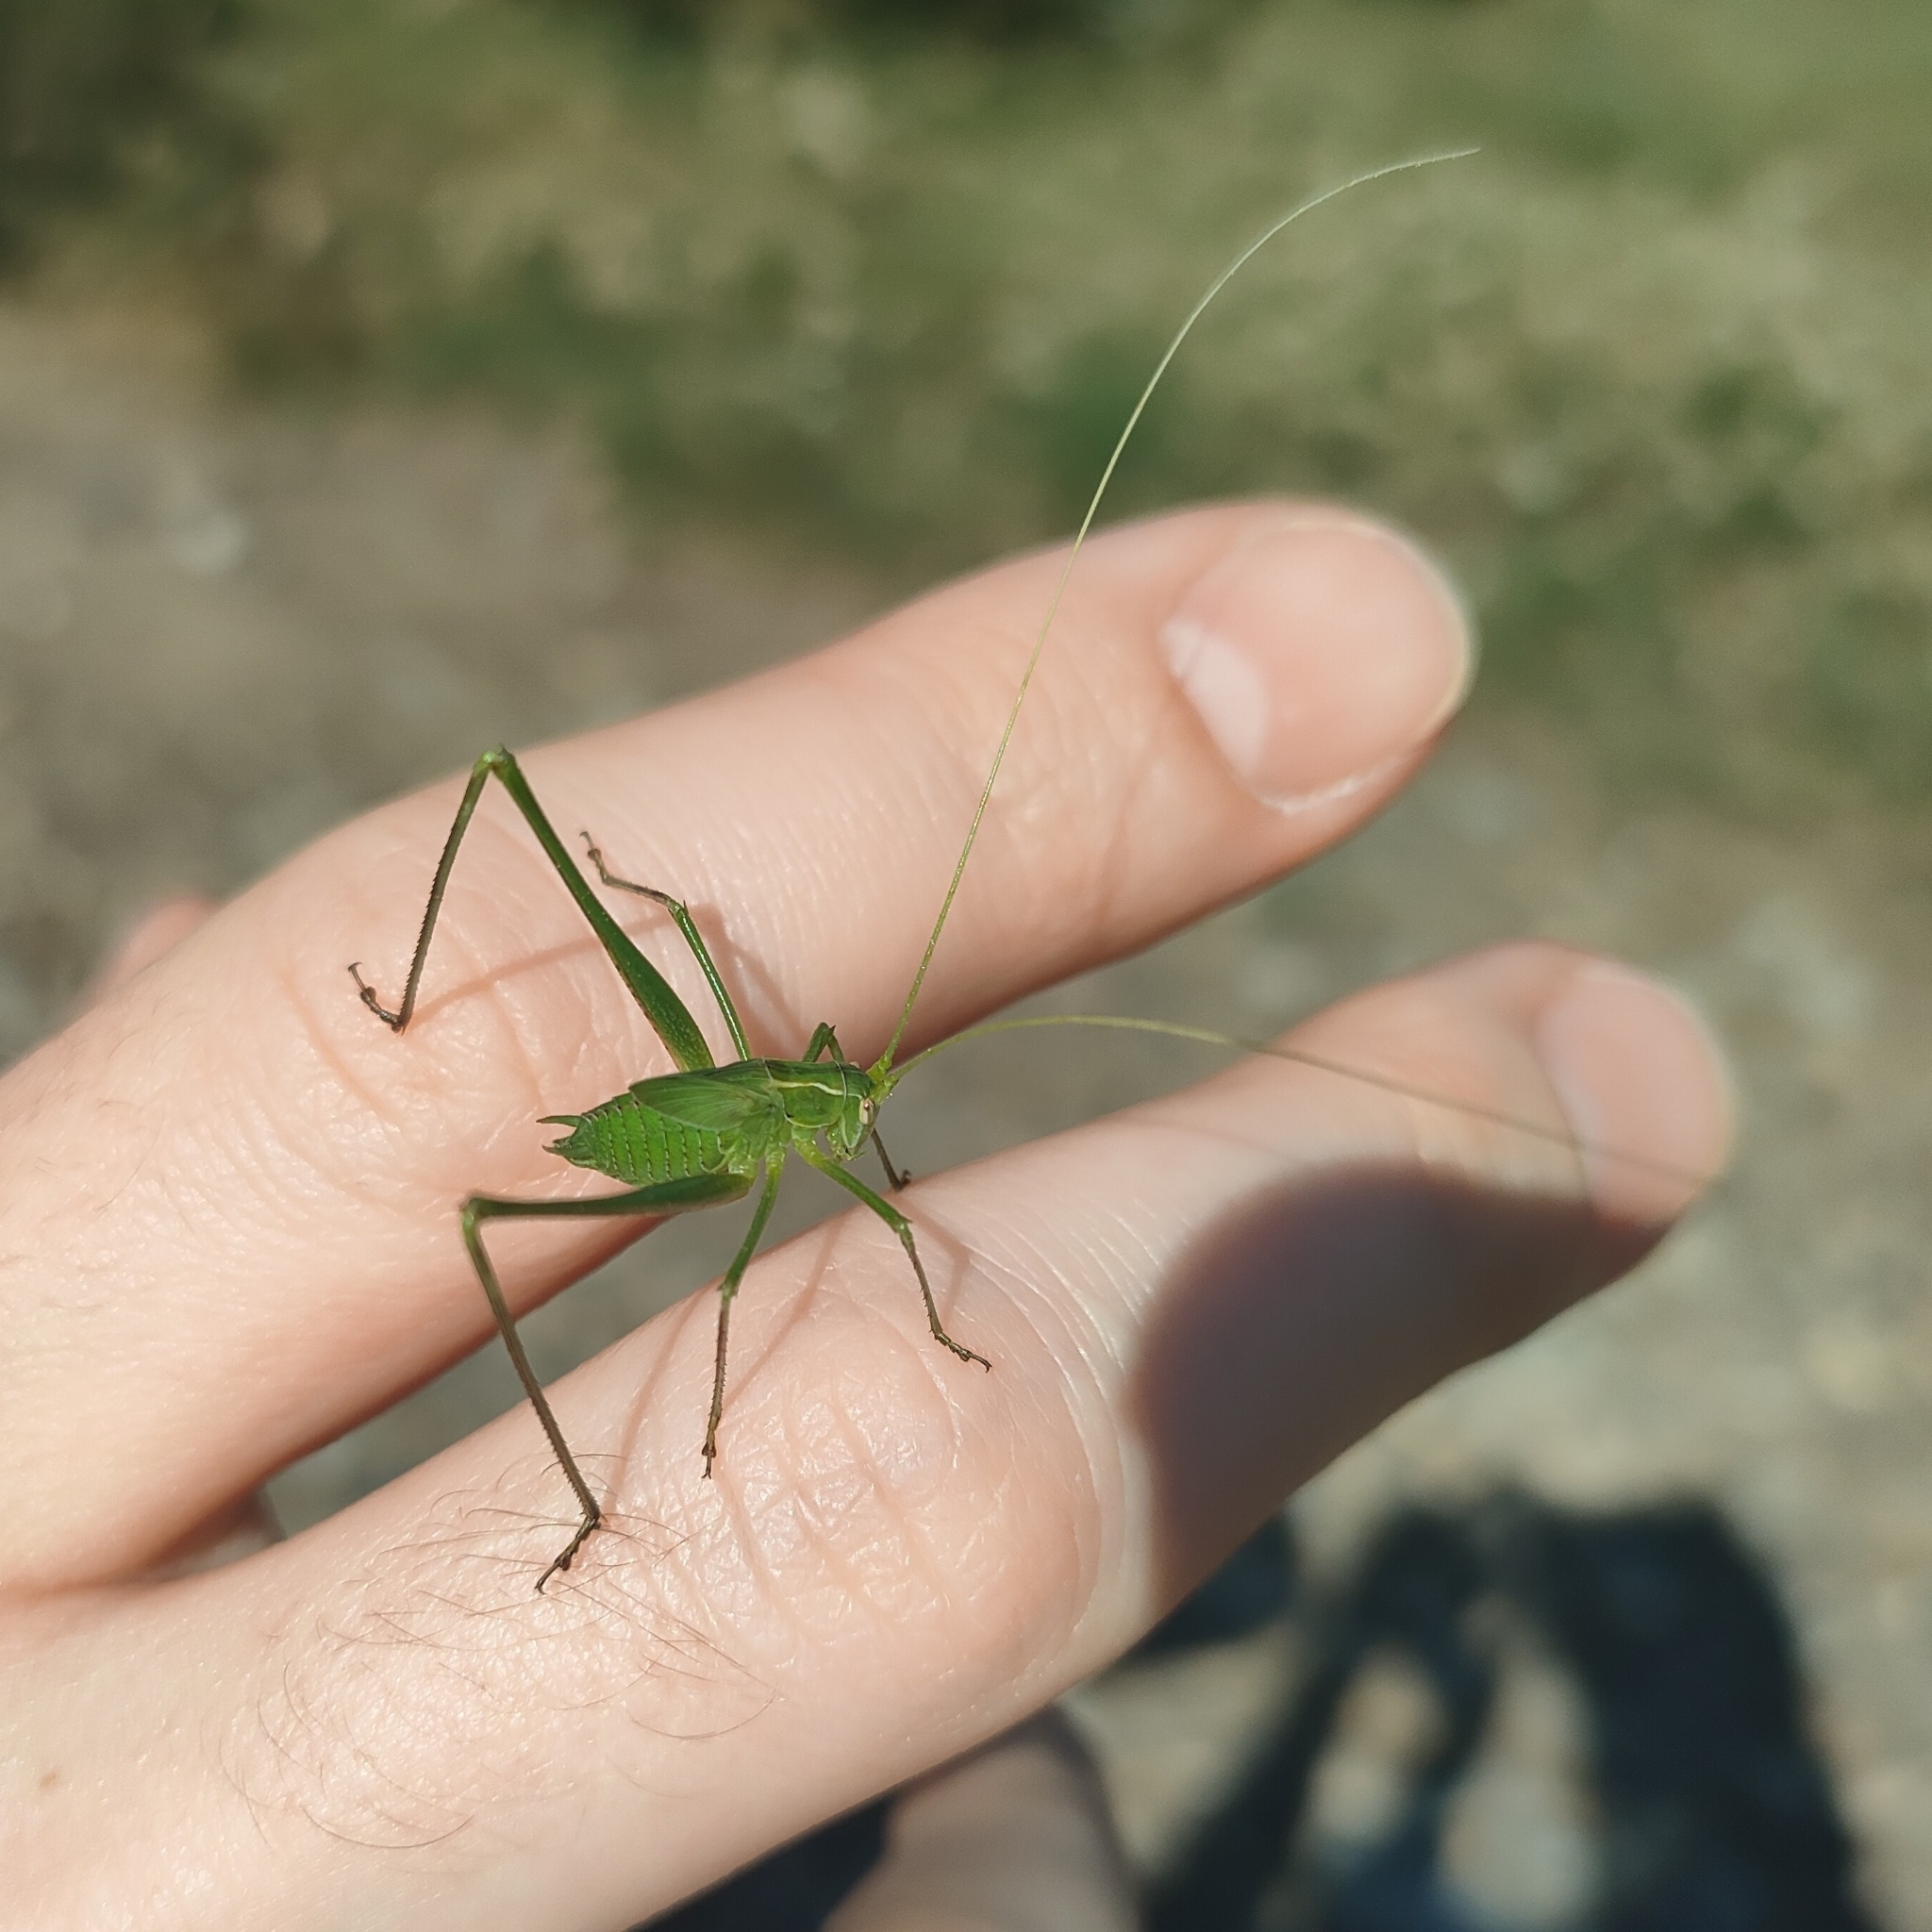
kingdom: Animalia
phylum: Arthropoda
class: Insecta
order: Orthoptera
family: Tettigoniidae
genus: Tylopsis
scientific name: Tylopsis lilifolia
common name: Lily bush-cricket
